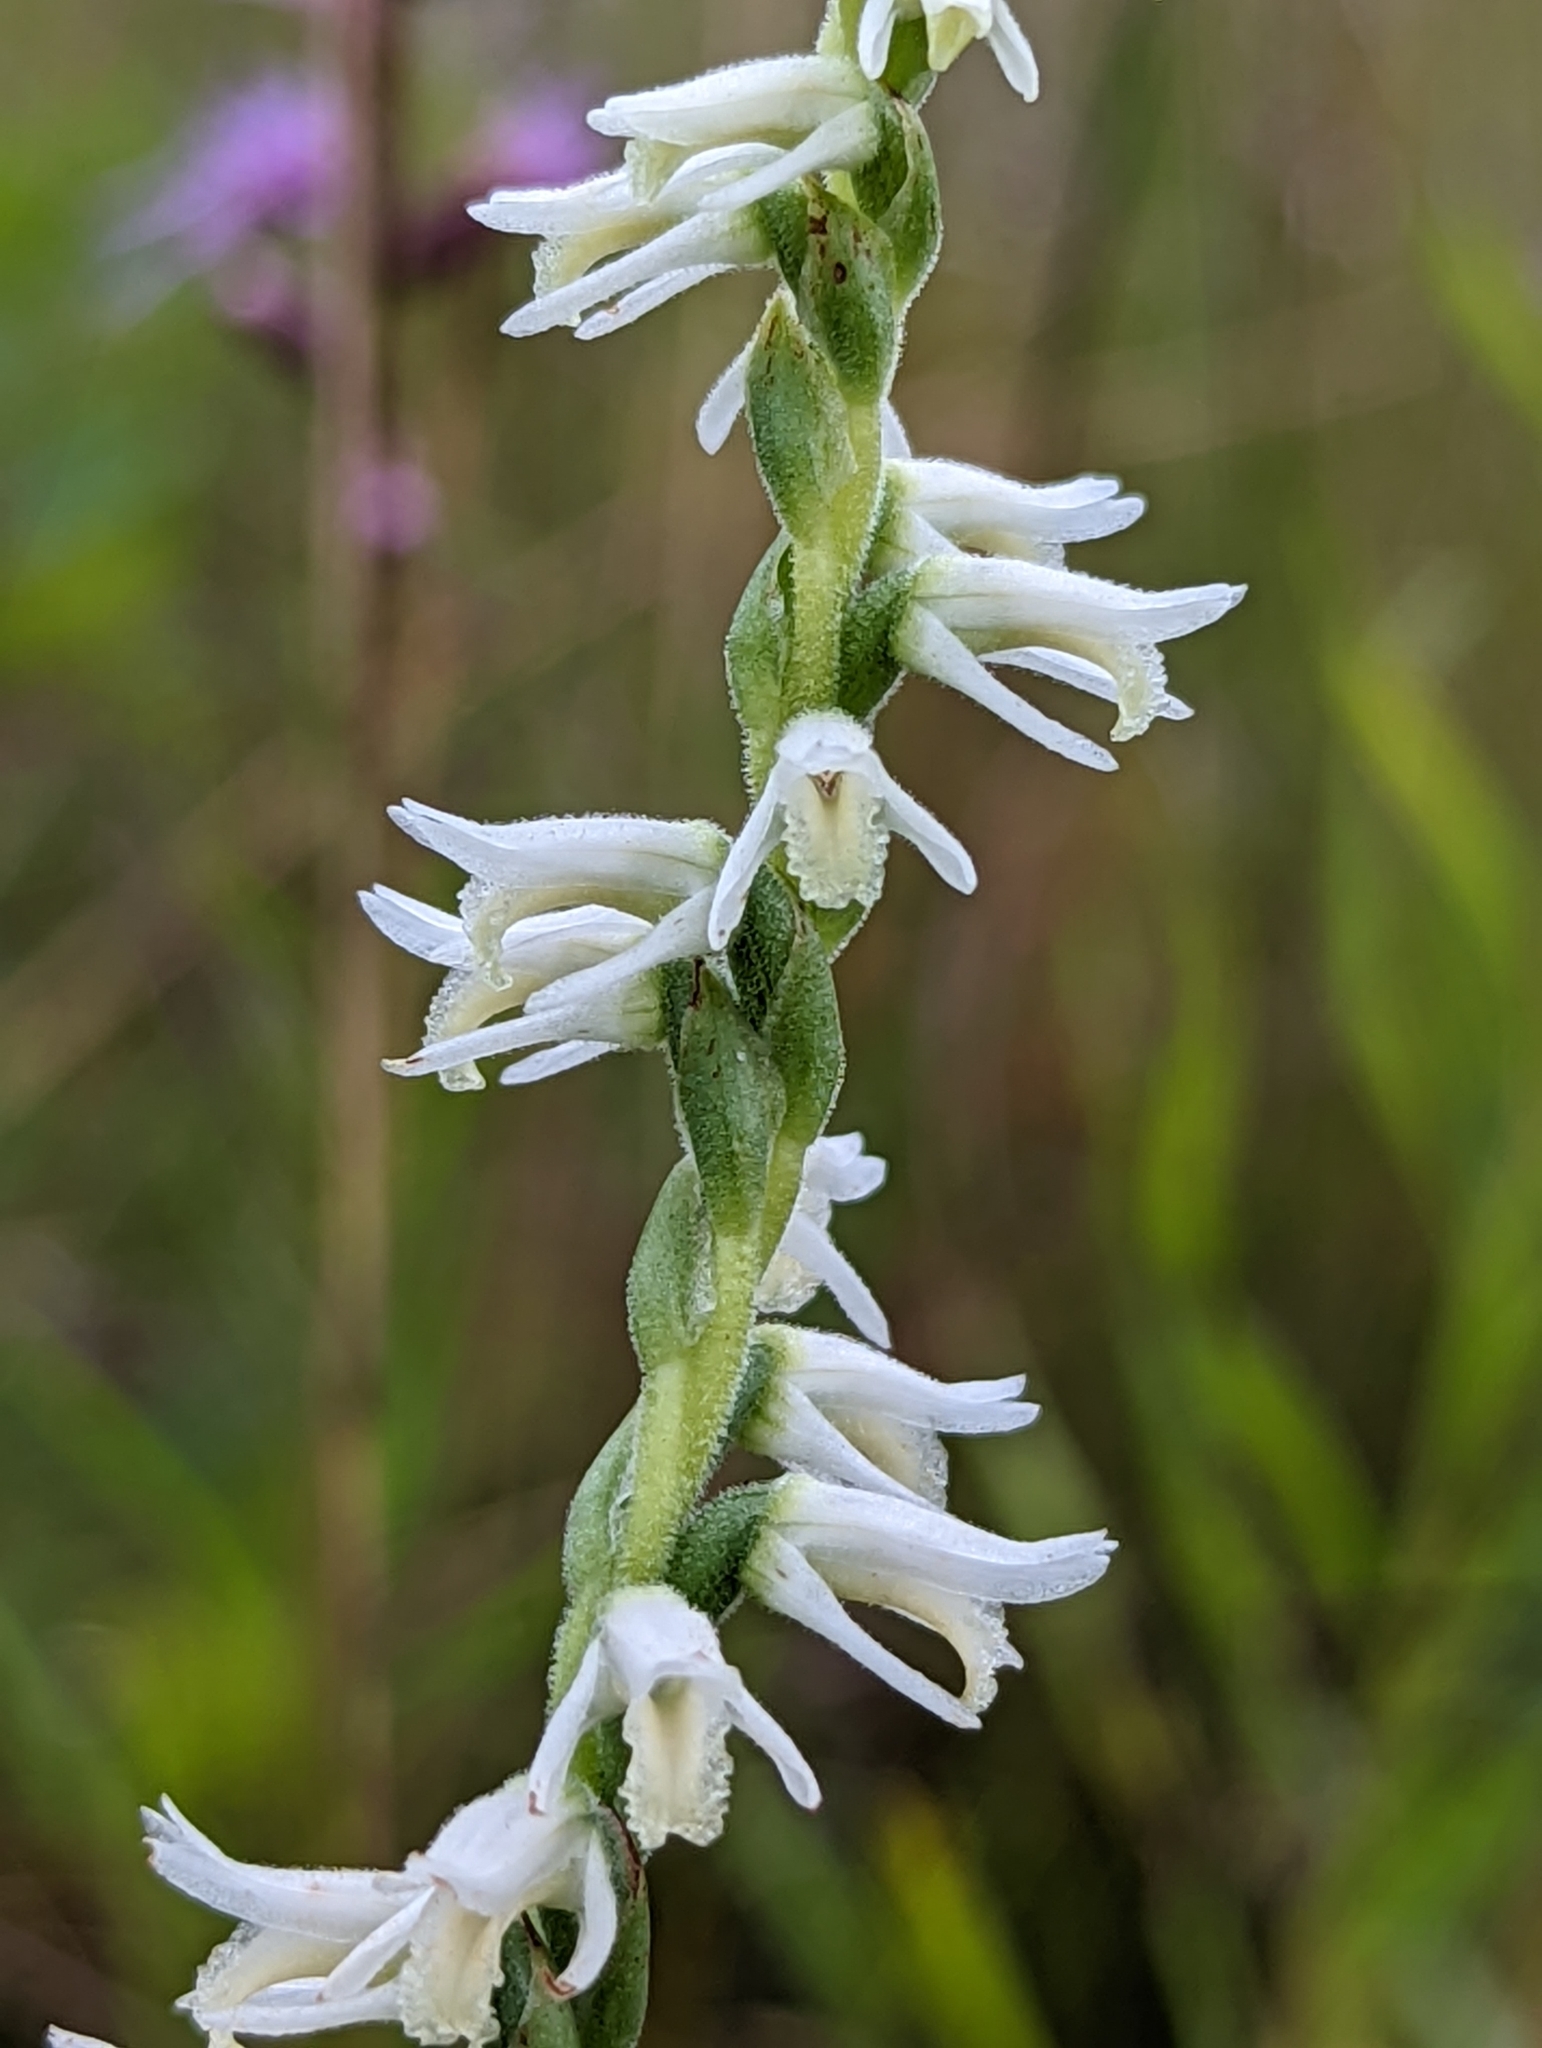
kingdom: Plantae
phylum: Tracheophyta
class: Liliopsida
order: Asparagales
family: Orchidaceae
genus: Spiranthes
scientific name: Spiranthes vernalis
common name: Spring ladies'-tresses
